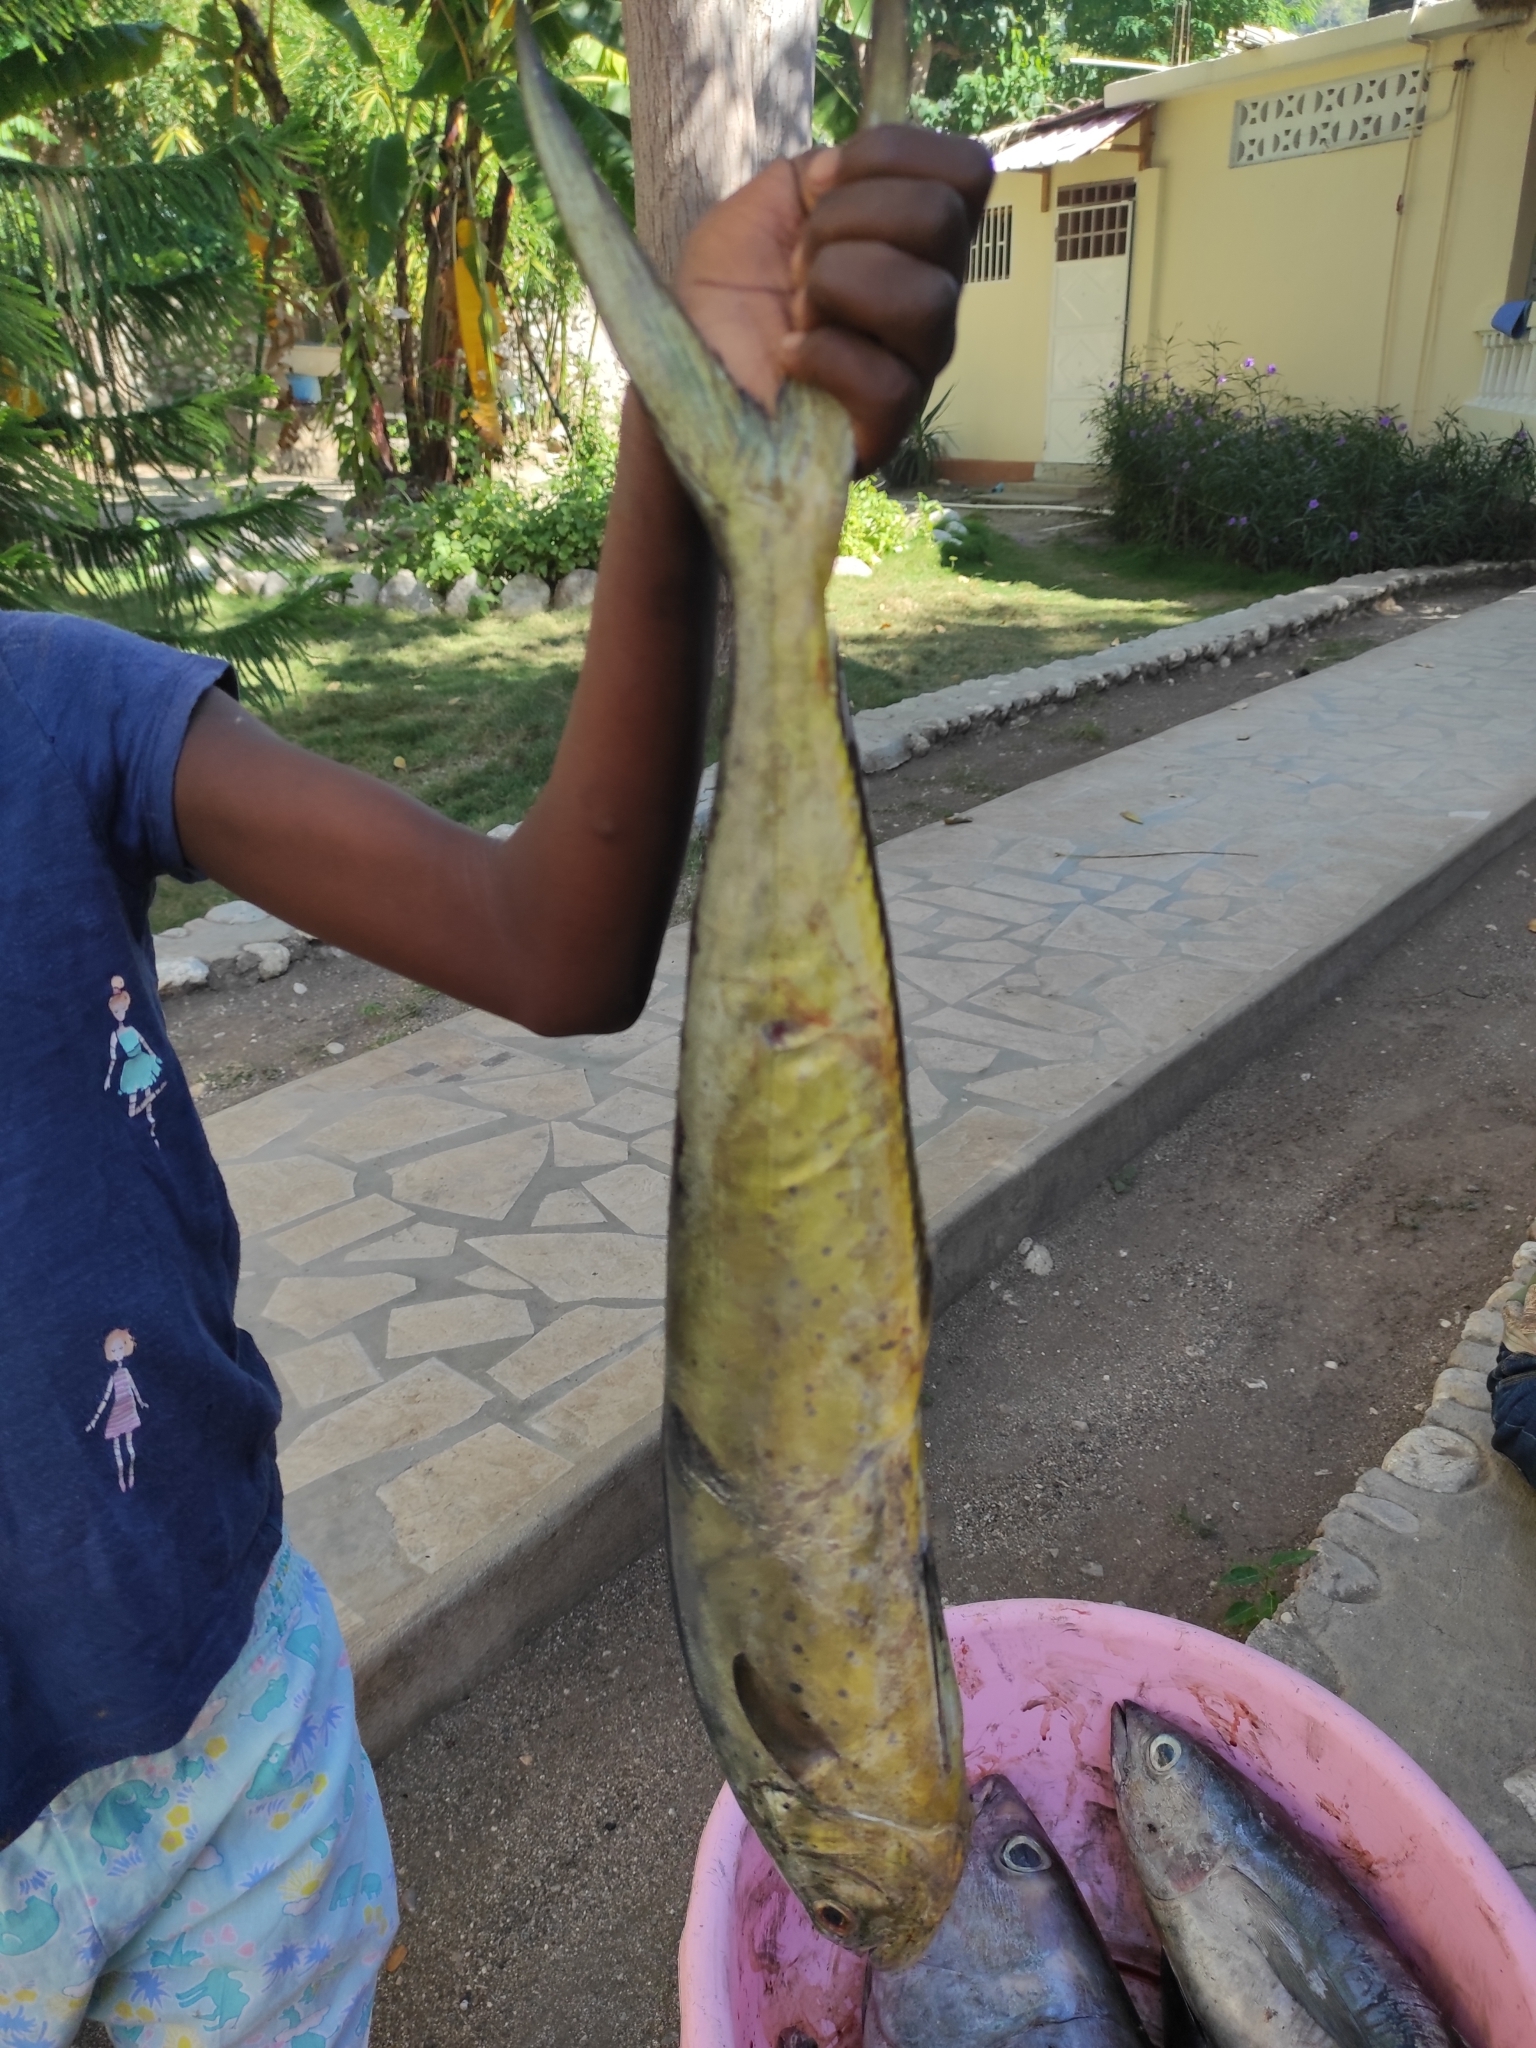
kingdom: Animalia
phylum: Chordata
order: Perciformes
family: Coryphaenidae
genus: Coryphaena
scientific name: Coryphaena hippurus
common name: Dolphin
